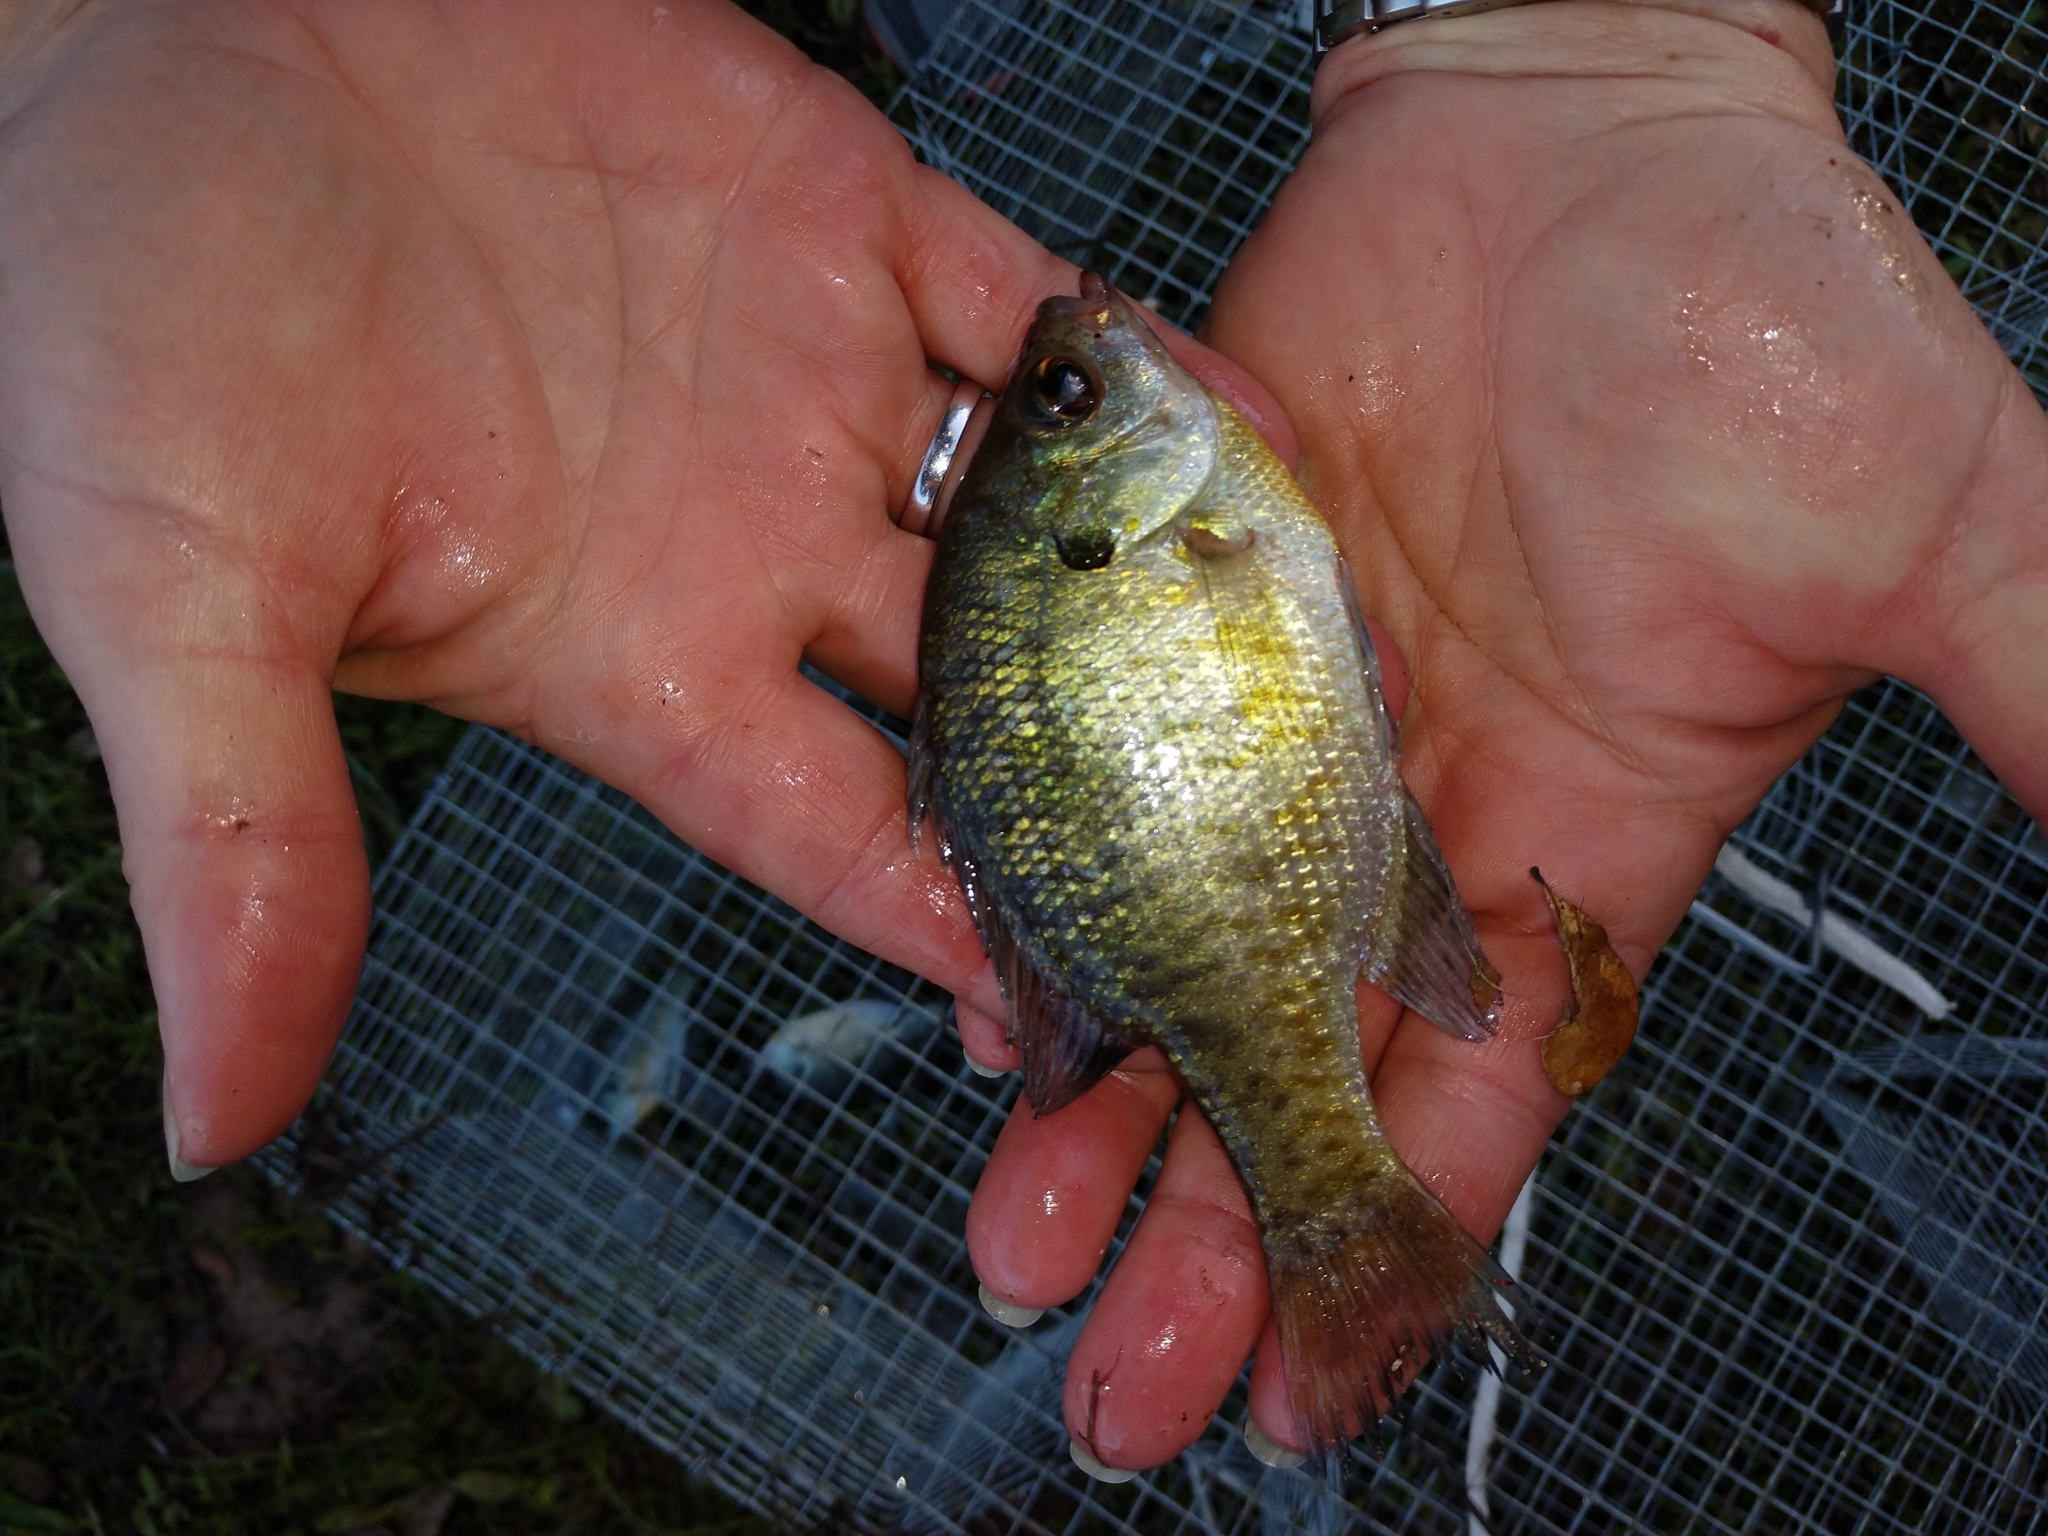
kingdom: Animalia
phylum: Chordata
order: Perciformes
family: Centrarchidae
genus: Lepomis
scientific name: Lepomis macrochirus
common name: Bluegill
